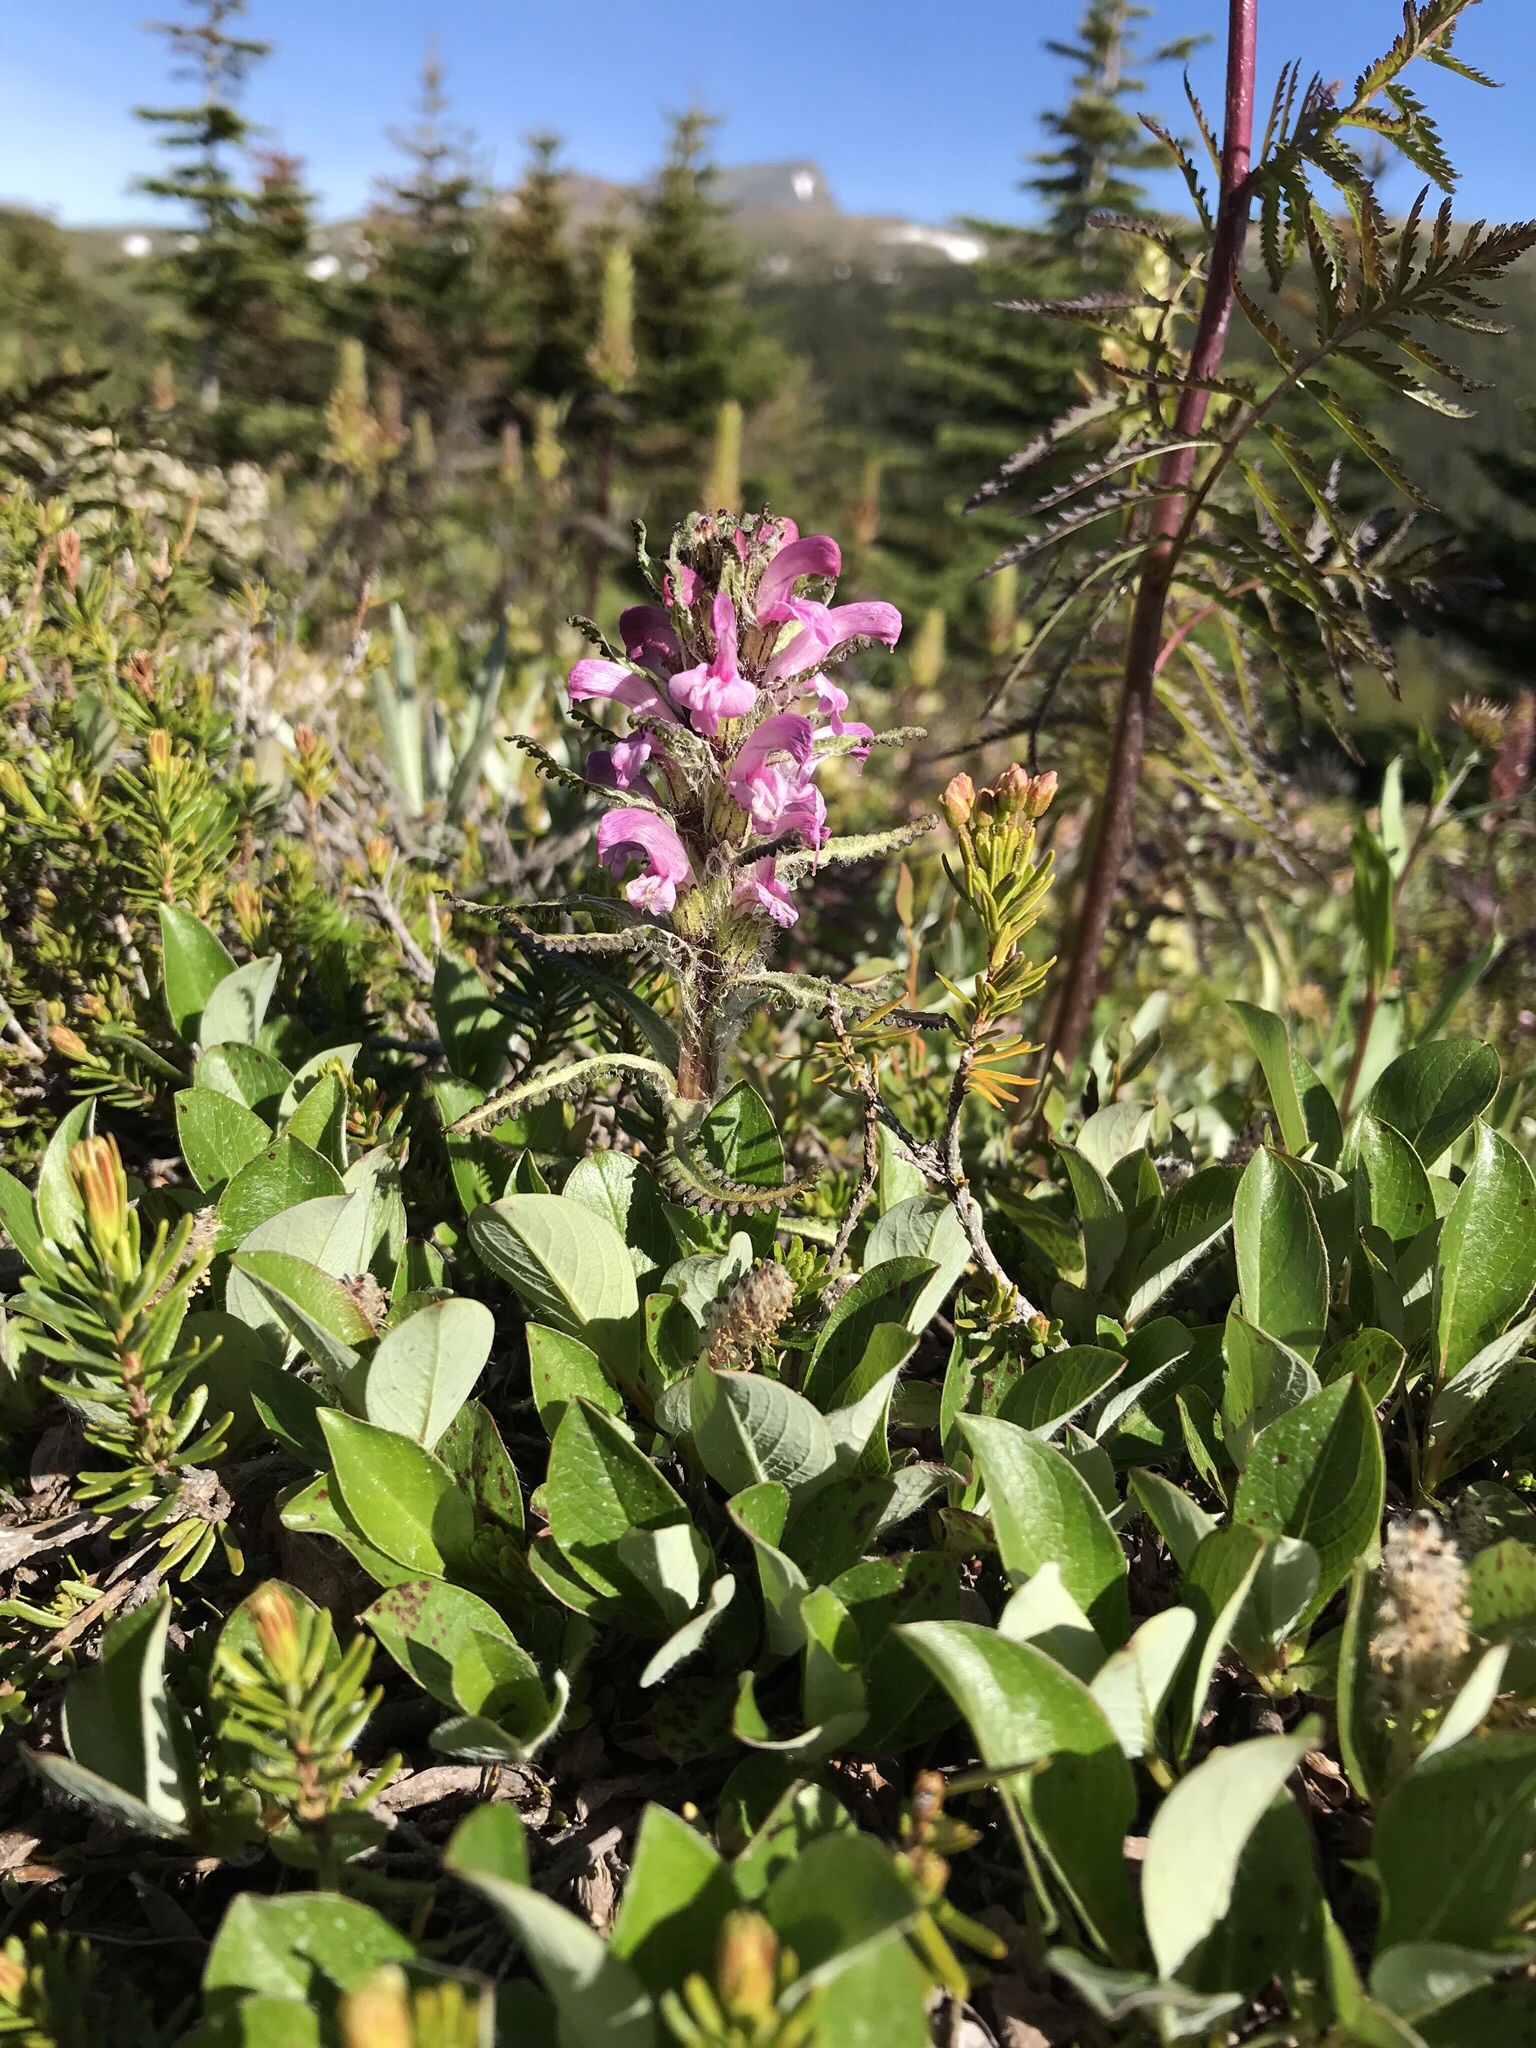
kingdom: Plantae
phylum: Tracheophyta
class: Magnoliopsida
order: Lamiales
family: Orobanchaceae
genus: Pedicularis
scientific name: Pedicularis langsdorffii
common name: Langsdorff's lousewort
